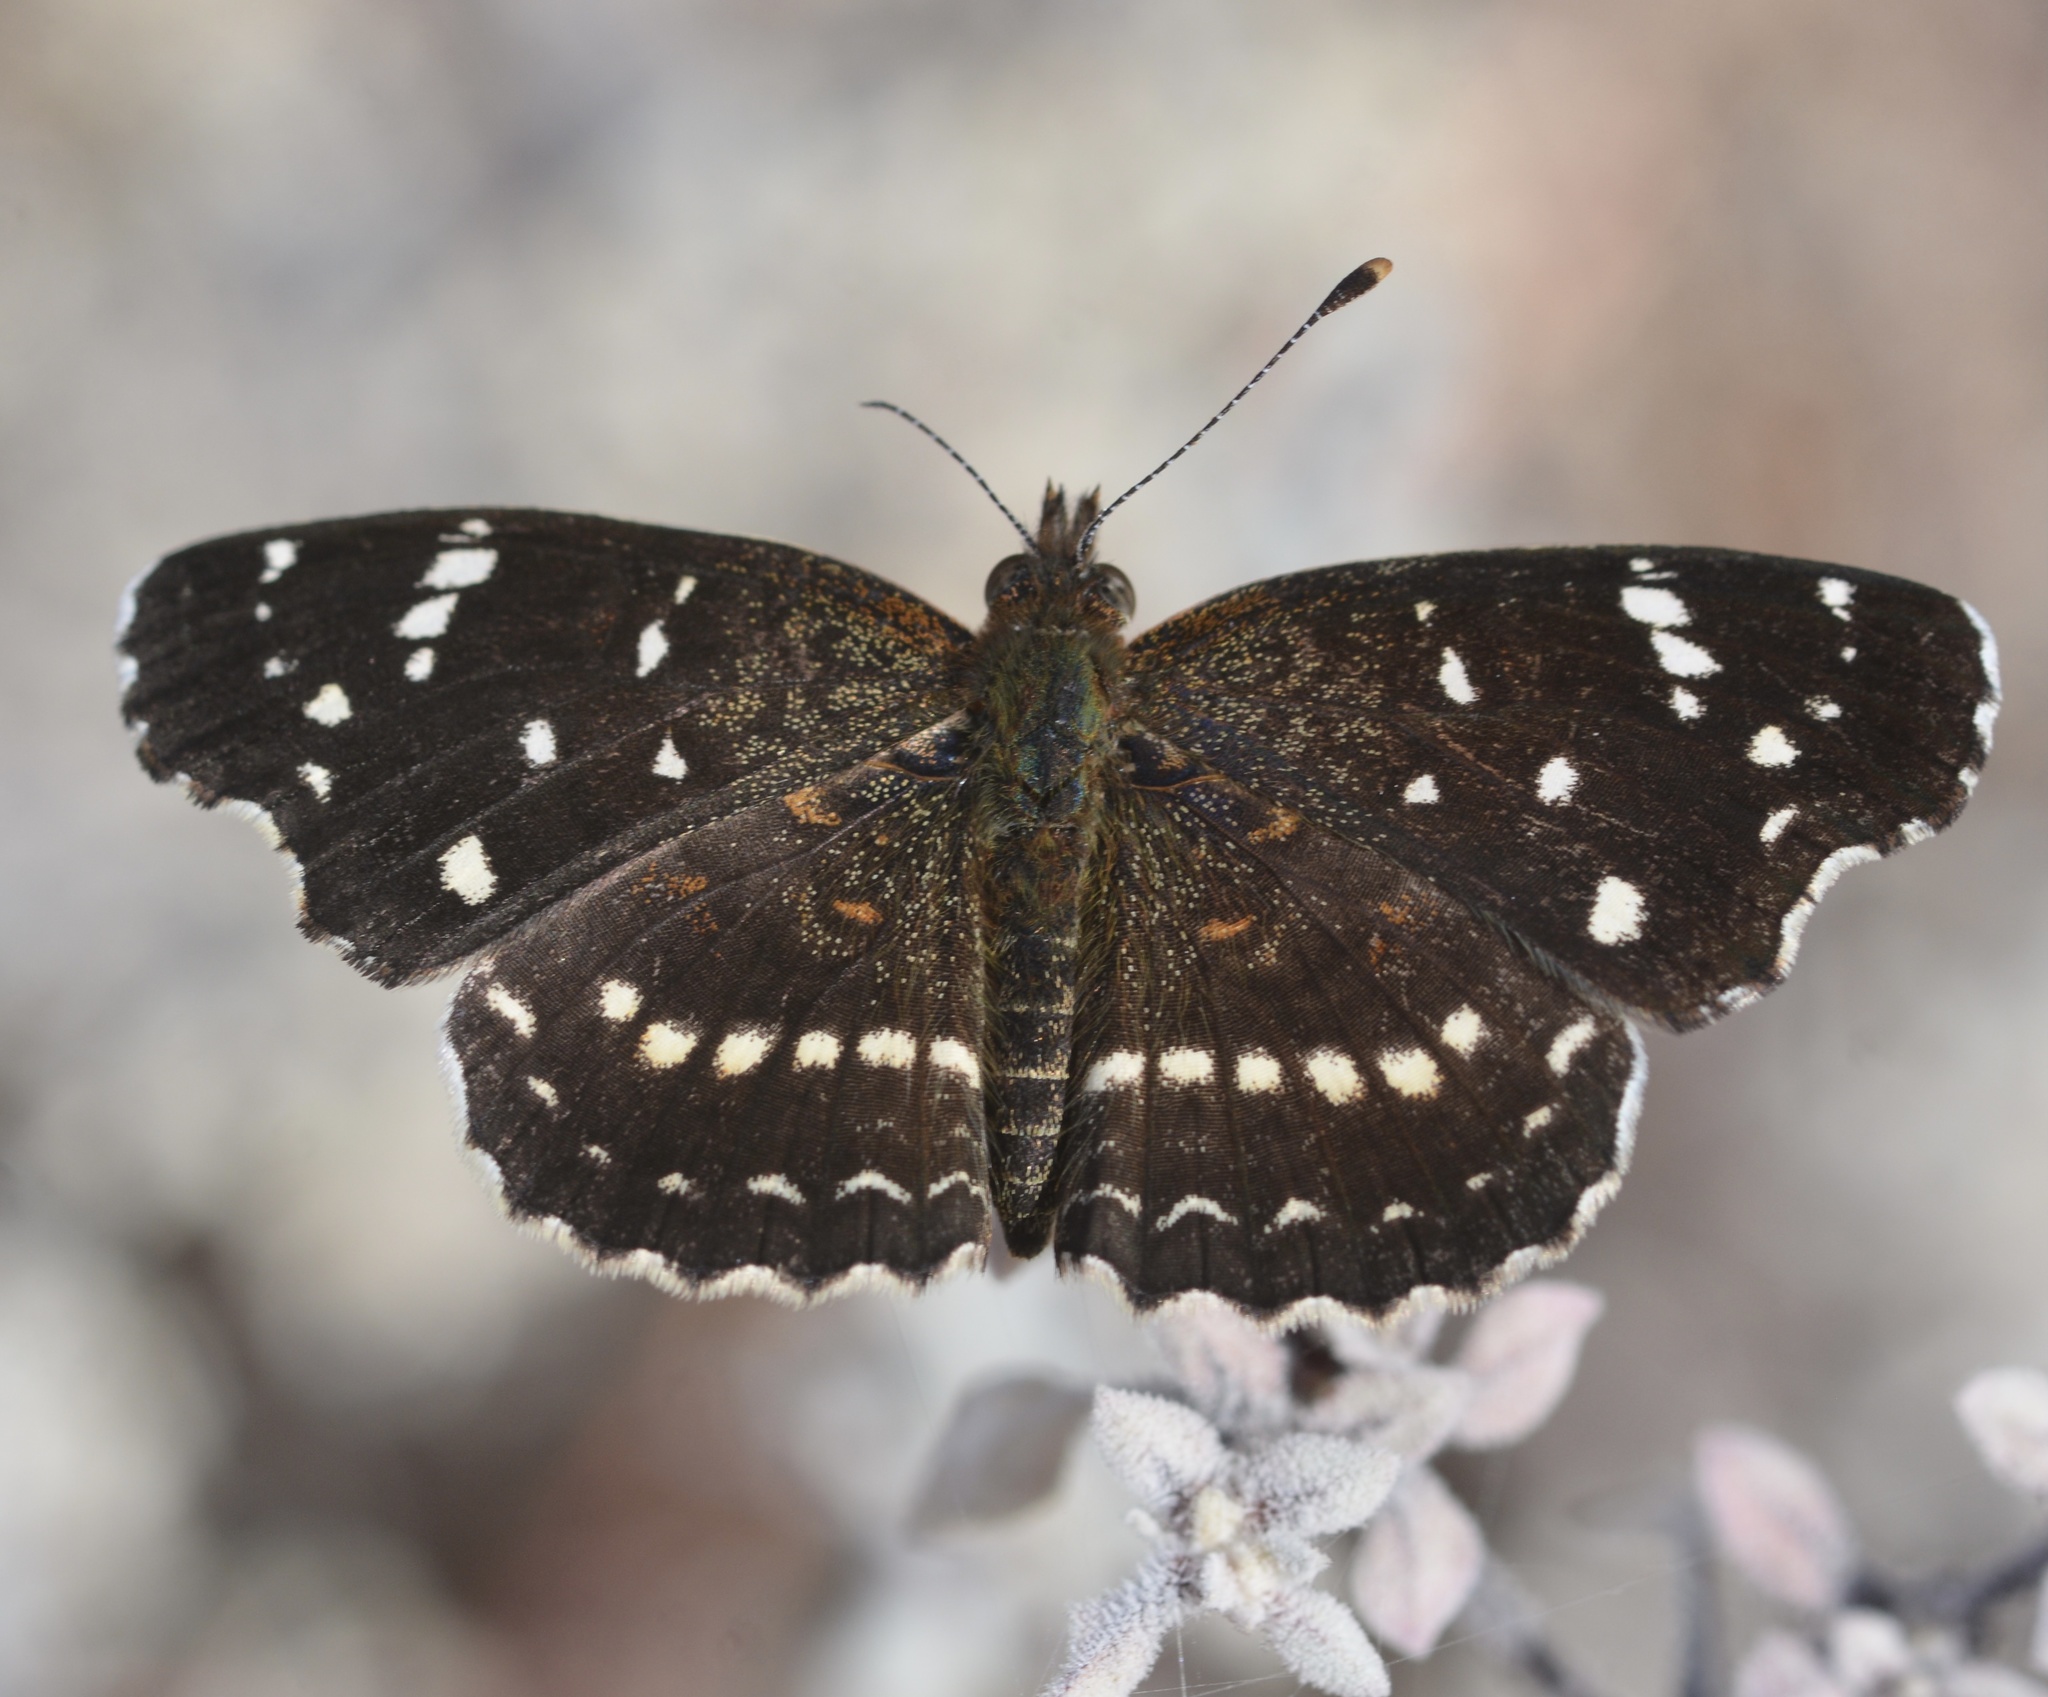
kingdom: Animalia
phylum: Arthropoda
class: Insecta
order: Lepidoptera
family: Nymphalidae
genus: Anthanassa
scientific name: Anthanassa texana
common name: Texan crescent
